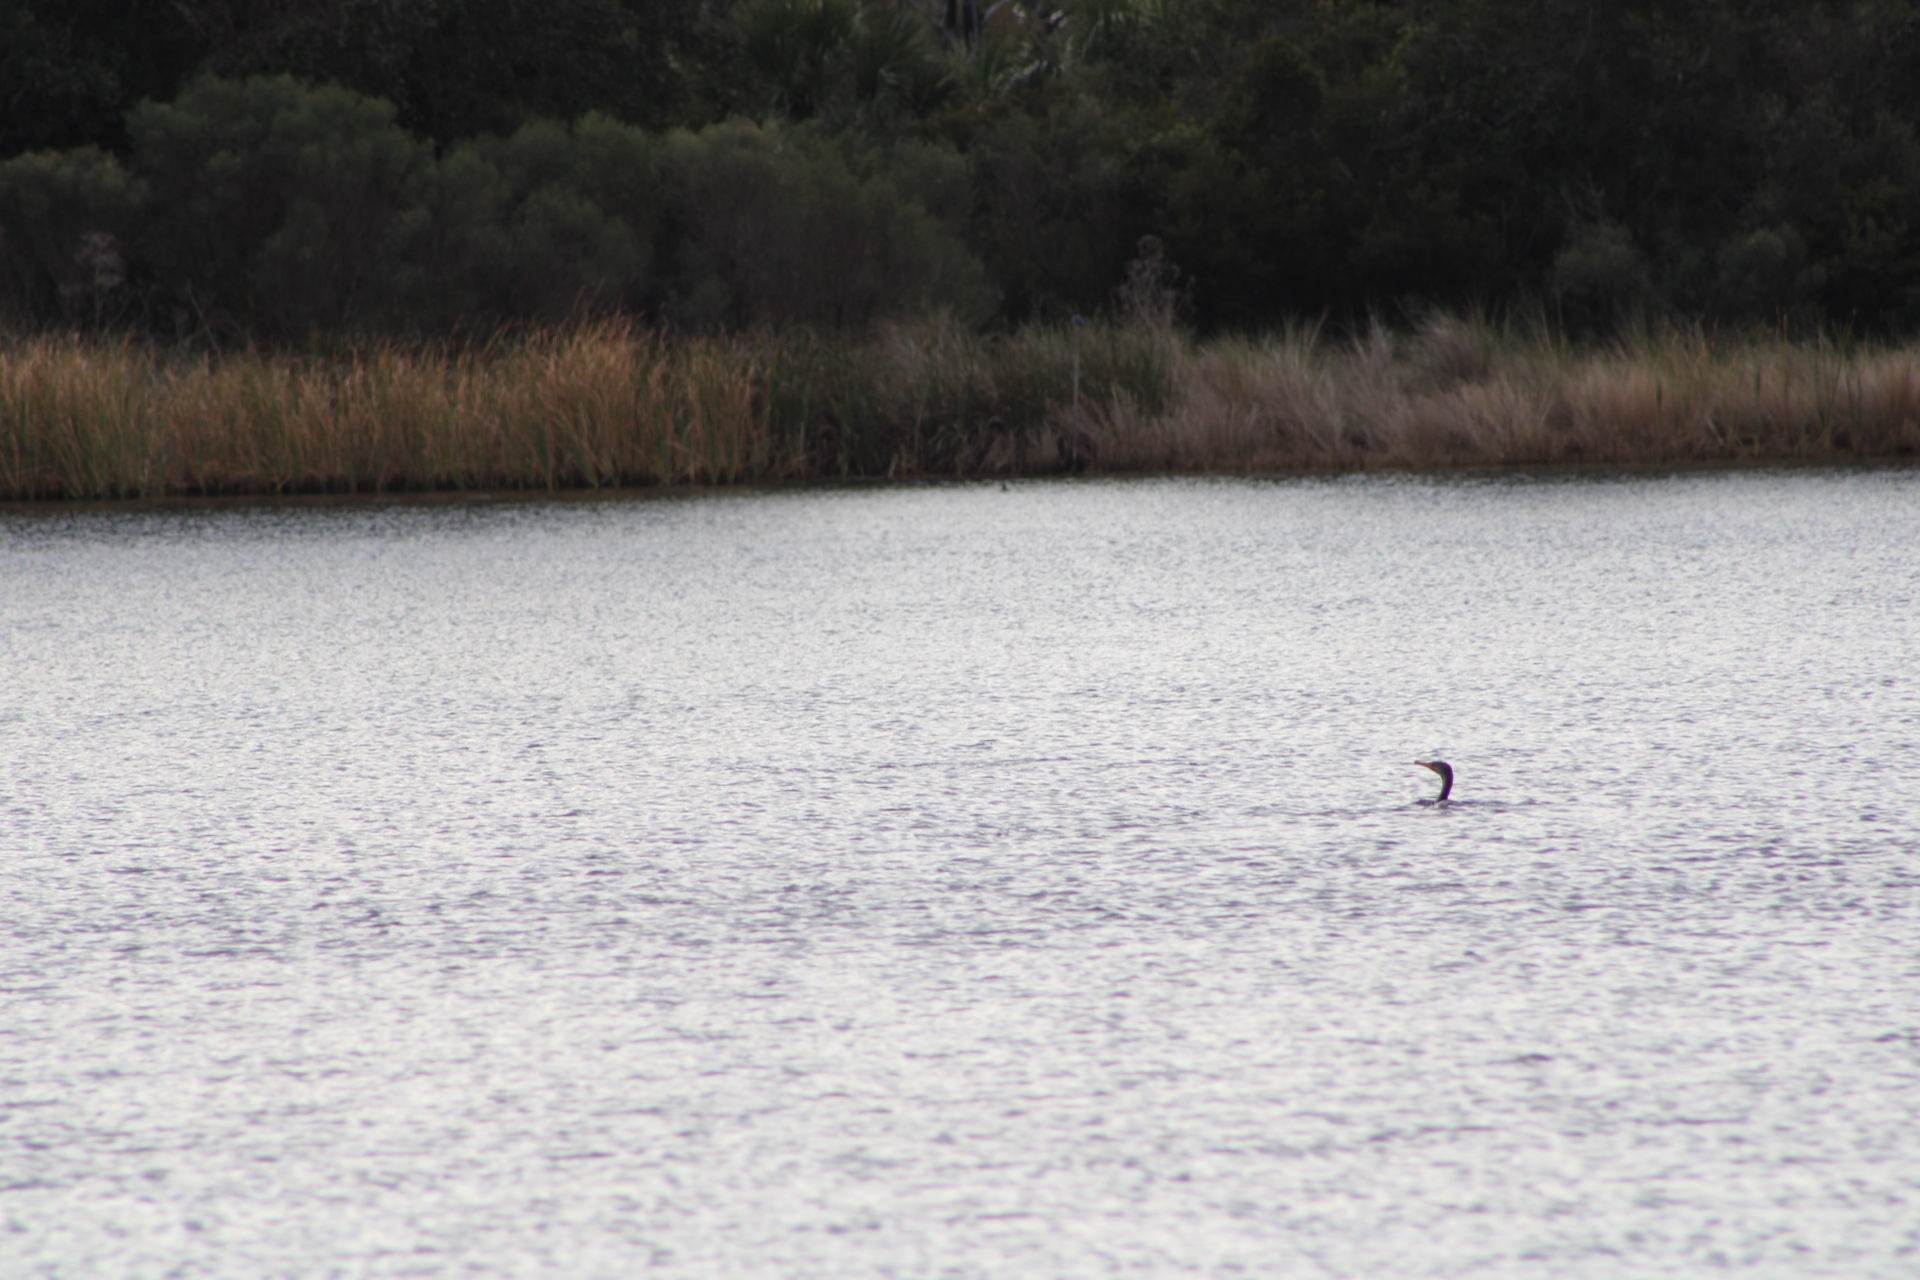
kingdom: Animalia
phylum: Chordata
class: Aves
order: Suliformes
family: Phalacrocoracidae
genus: Phalacrocorax
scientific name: Phalacrocorax auritus
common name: Double-crested cormorant
